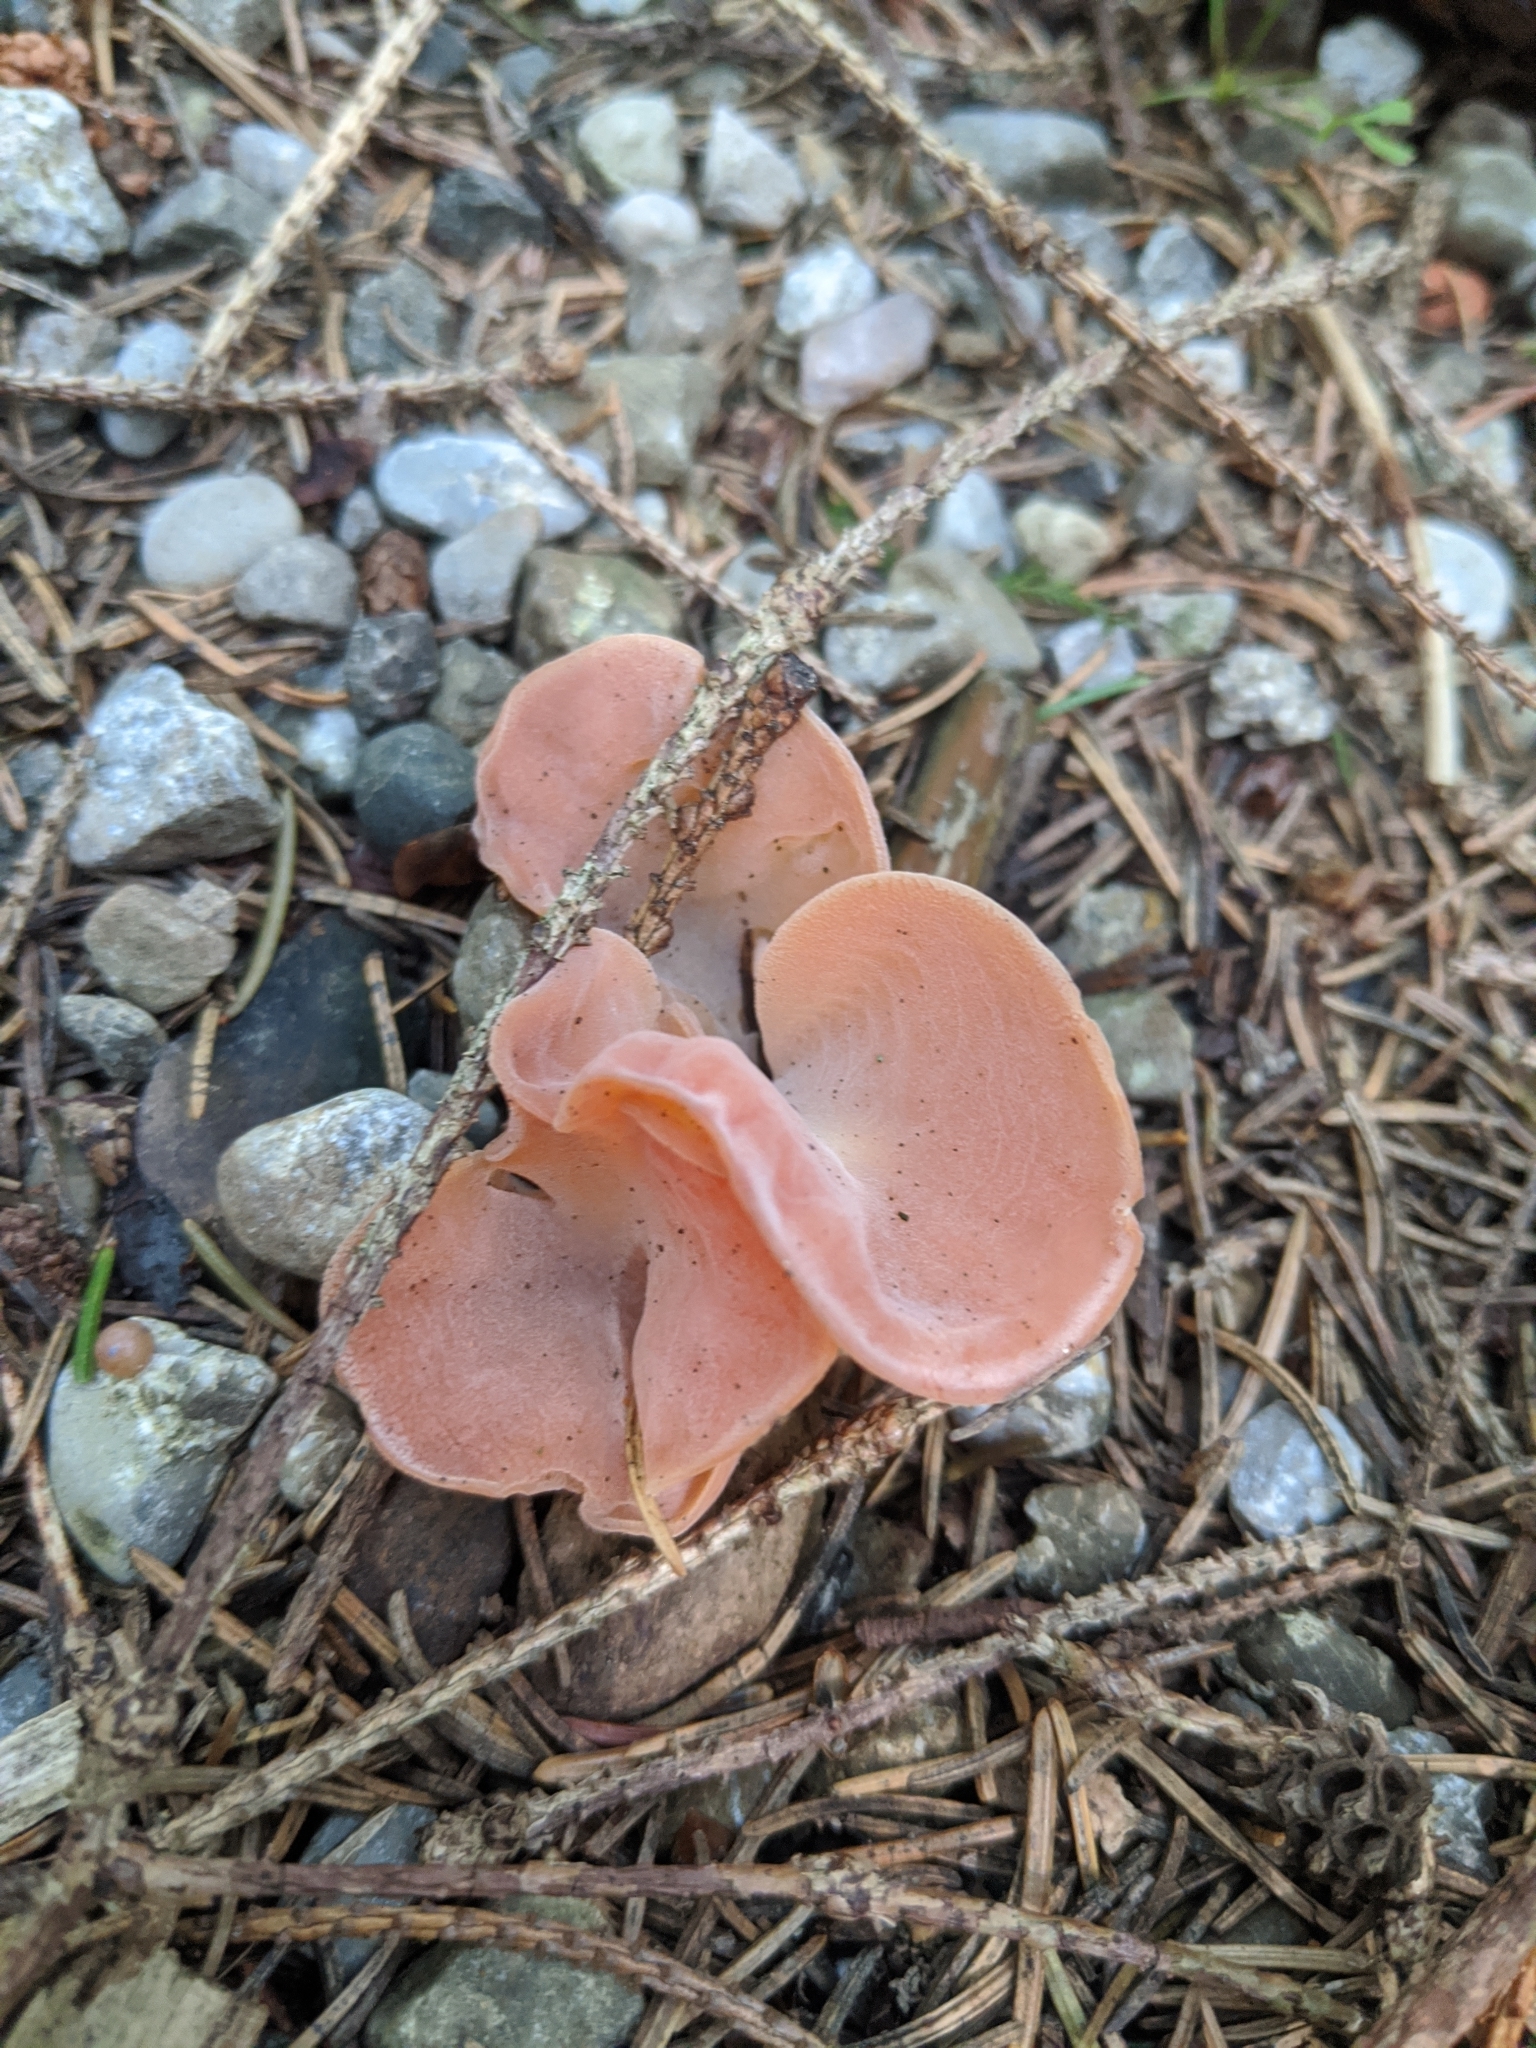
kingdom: Fungi
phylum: Basidiomycota
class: Agaricomycetes
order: Auriculariales
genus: Guepinia
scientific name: Guepinia helvelloides
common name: Salmon salad
